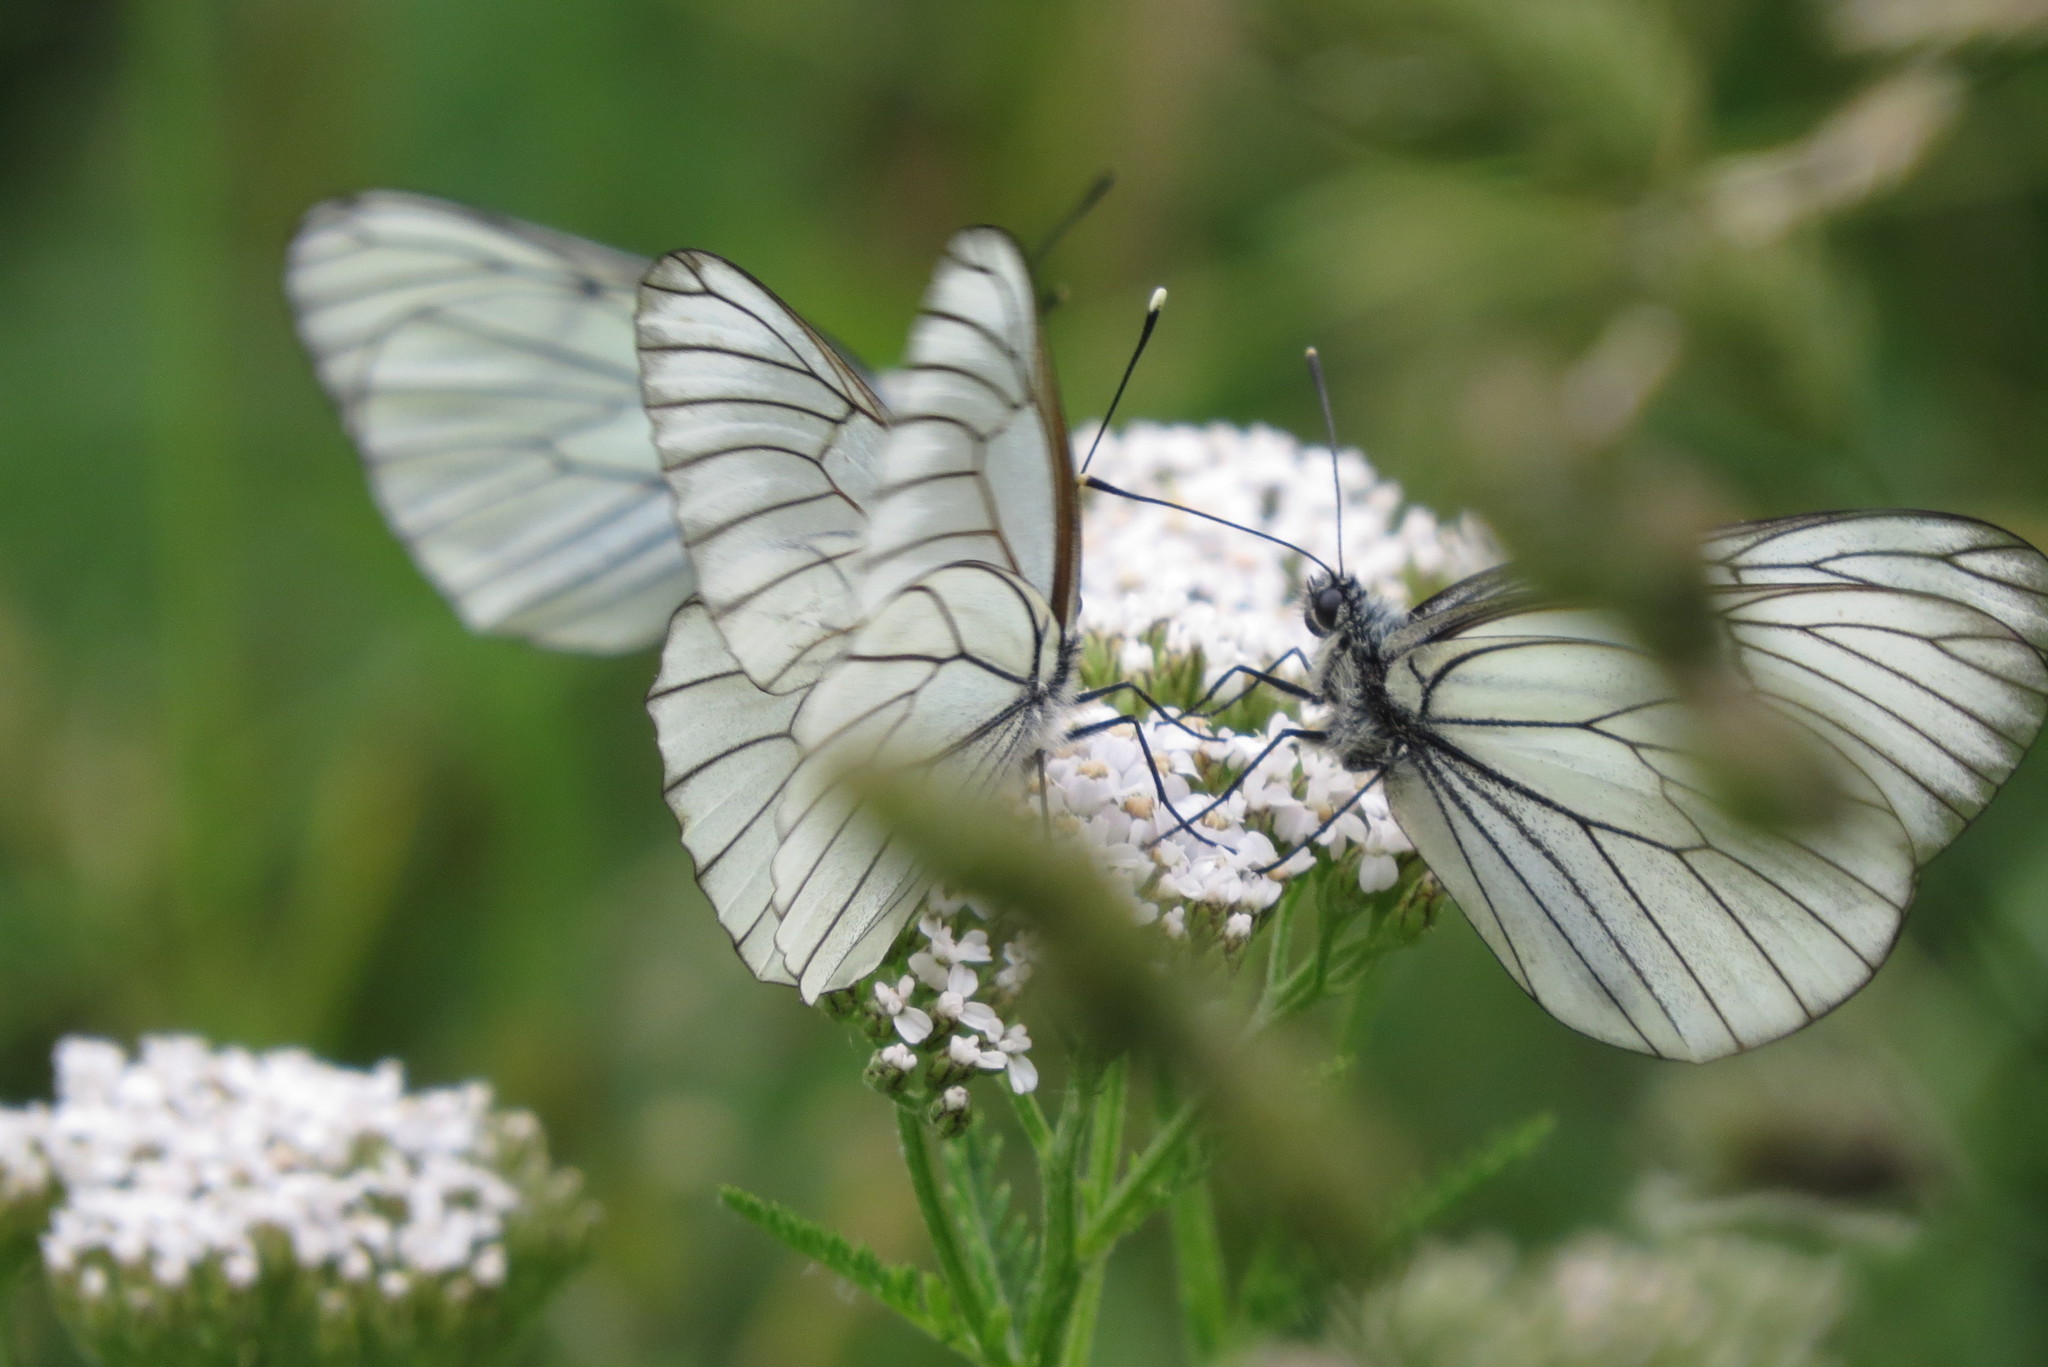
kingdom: Animalia
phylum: Arthropoda
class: Insecta
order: Lepidoptera
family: Pieridae
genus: Aporia
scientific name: Aporia crataegi
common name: Black-veined white
